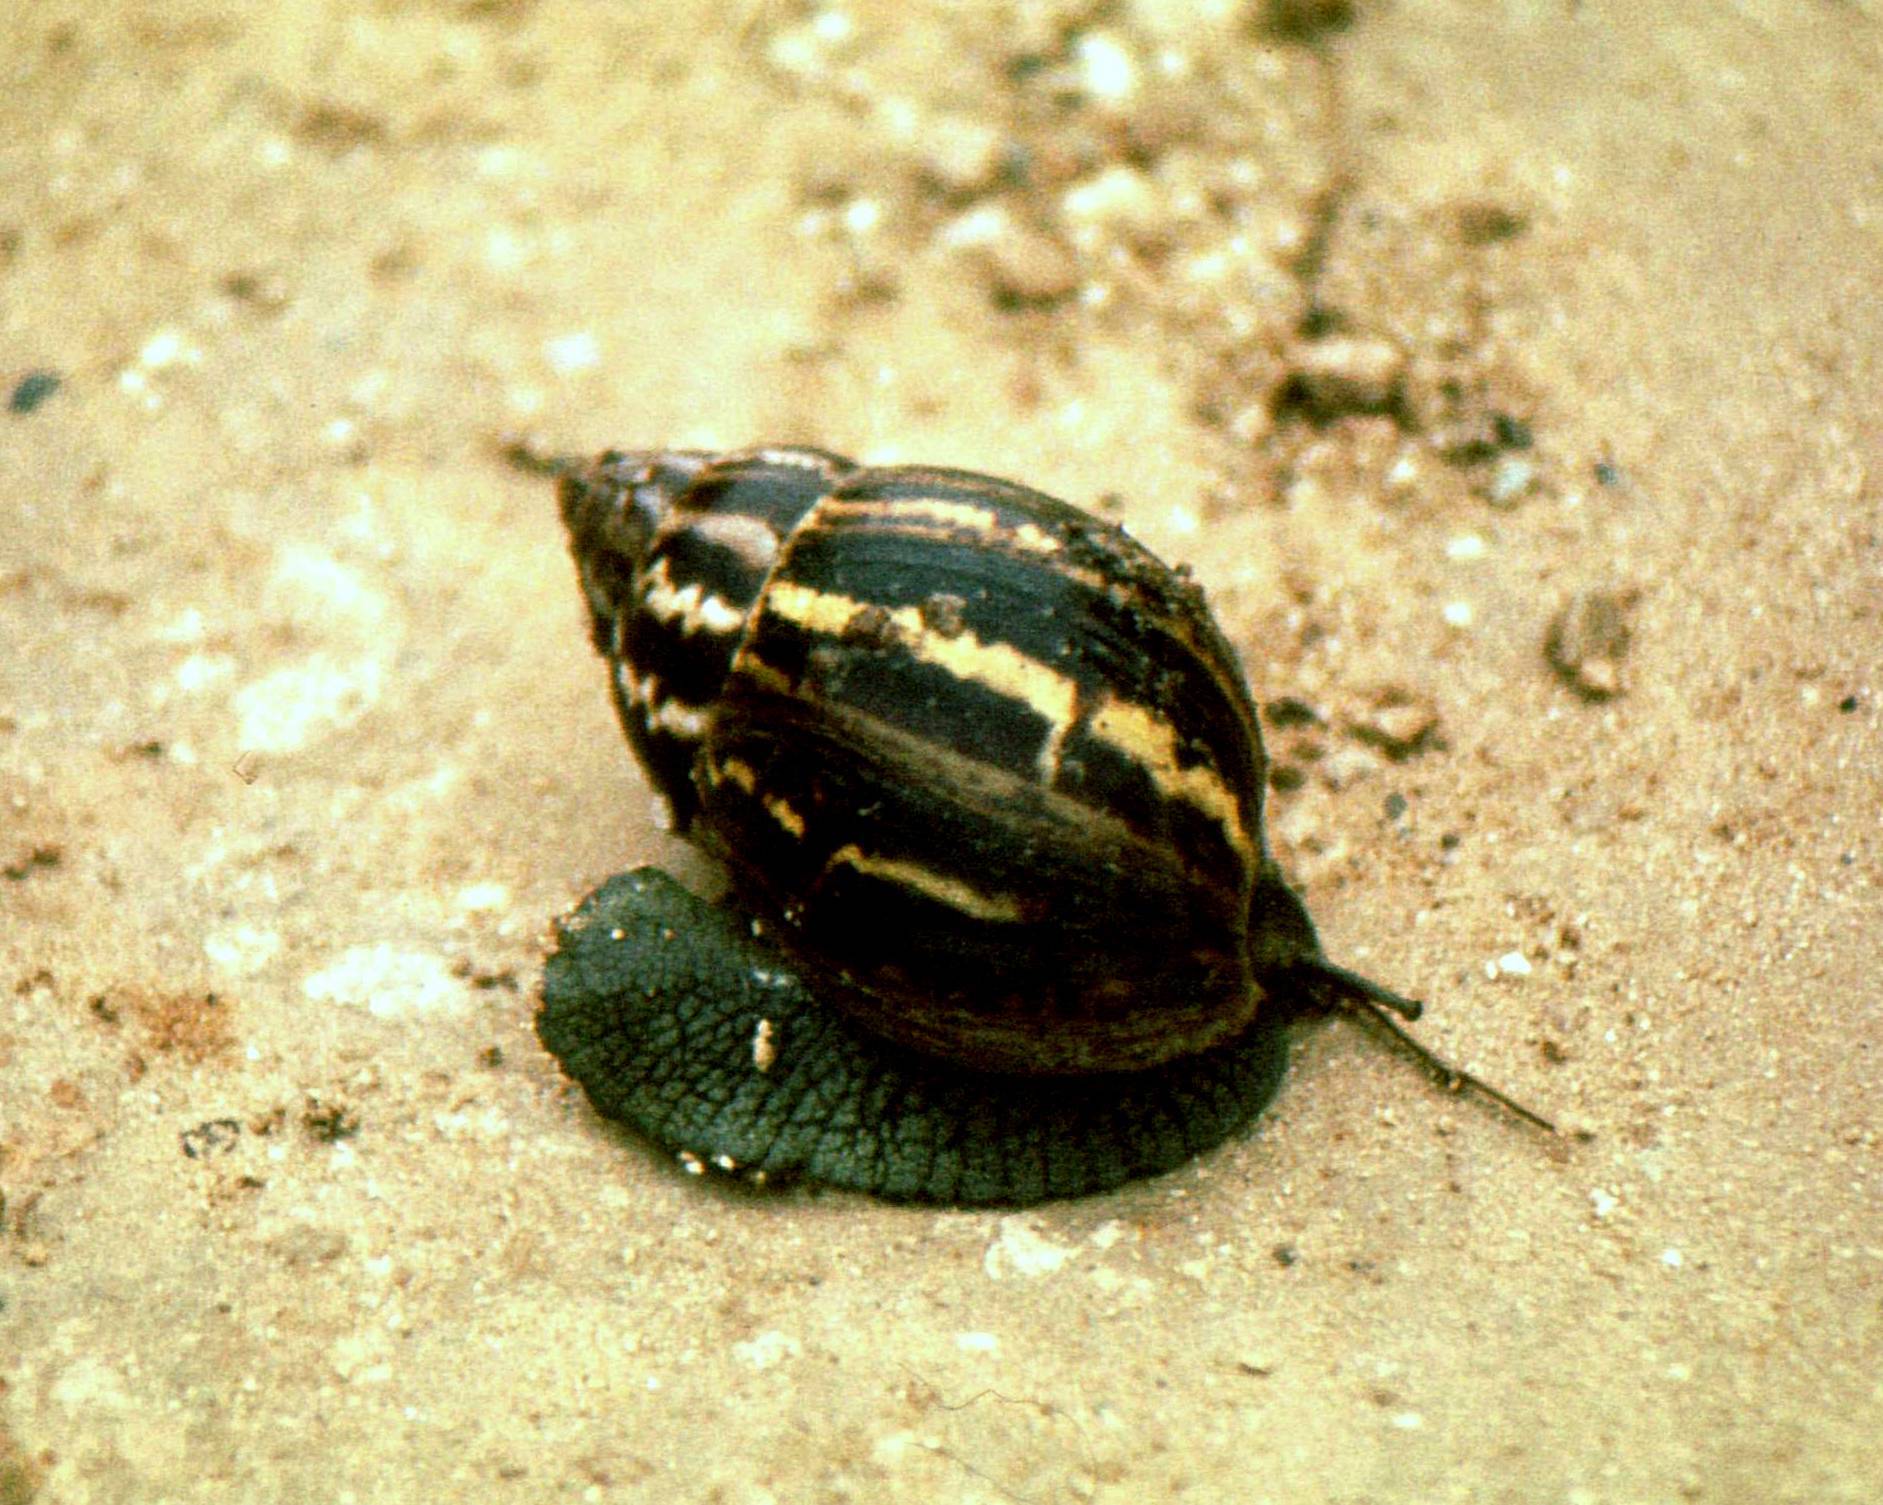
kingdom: Animalia
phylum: Mollusca
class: Gastropoda
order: Stylommatophora
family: Achatinidae
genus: Cochlitoma
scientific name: Cochlitoma zebra
